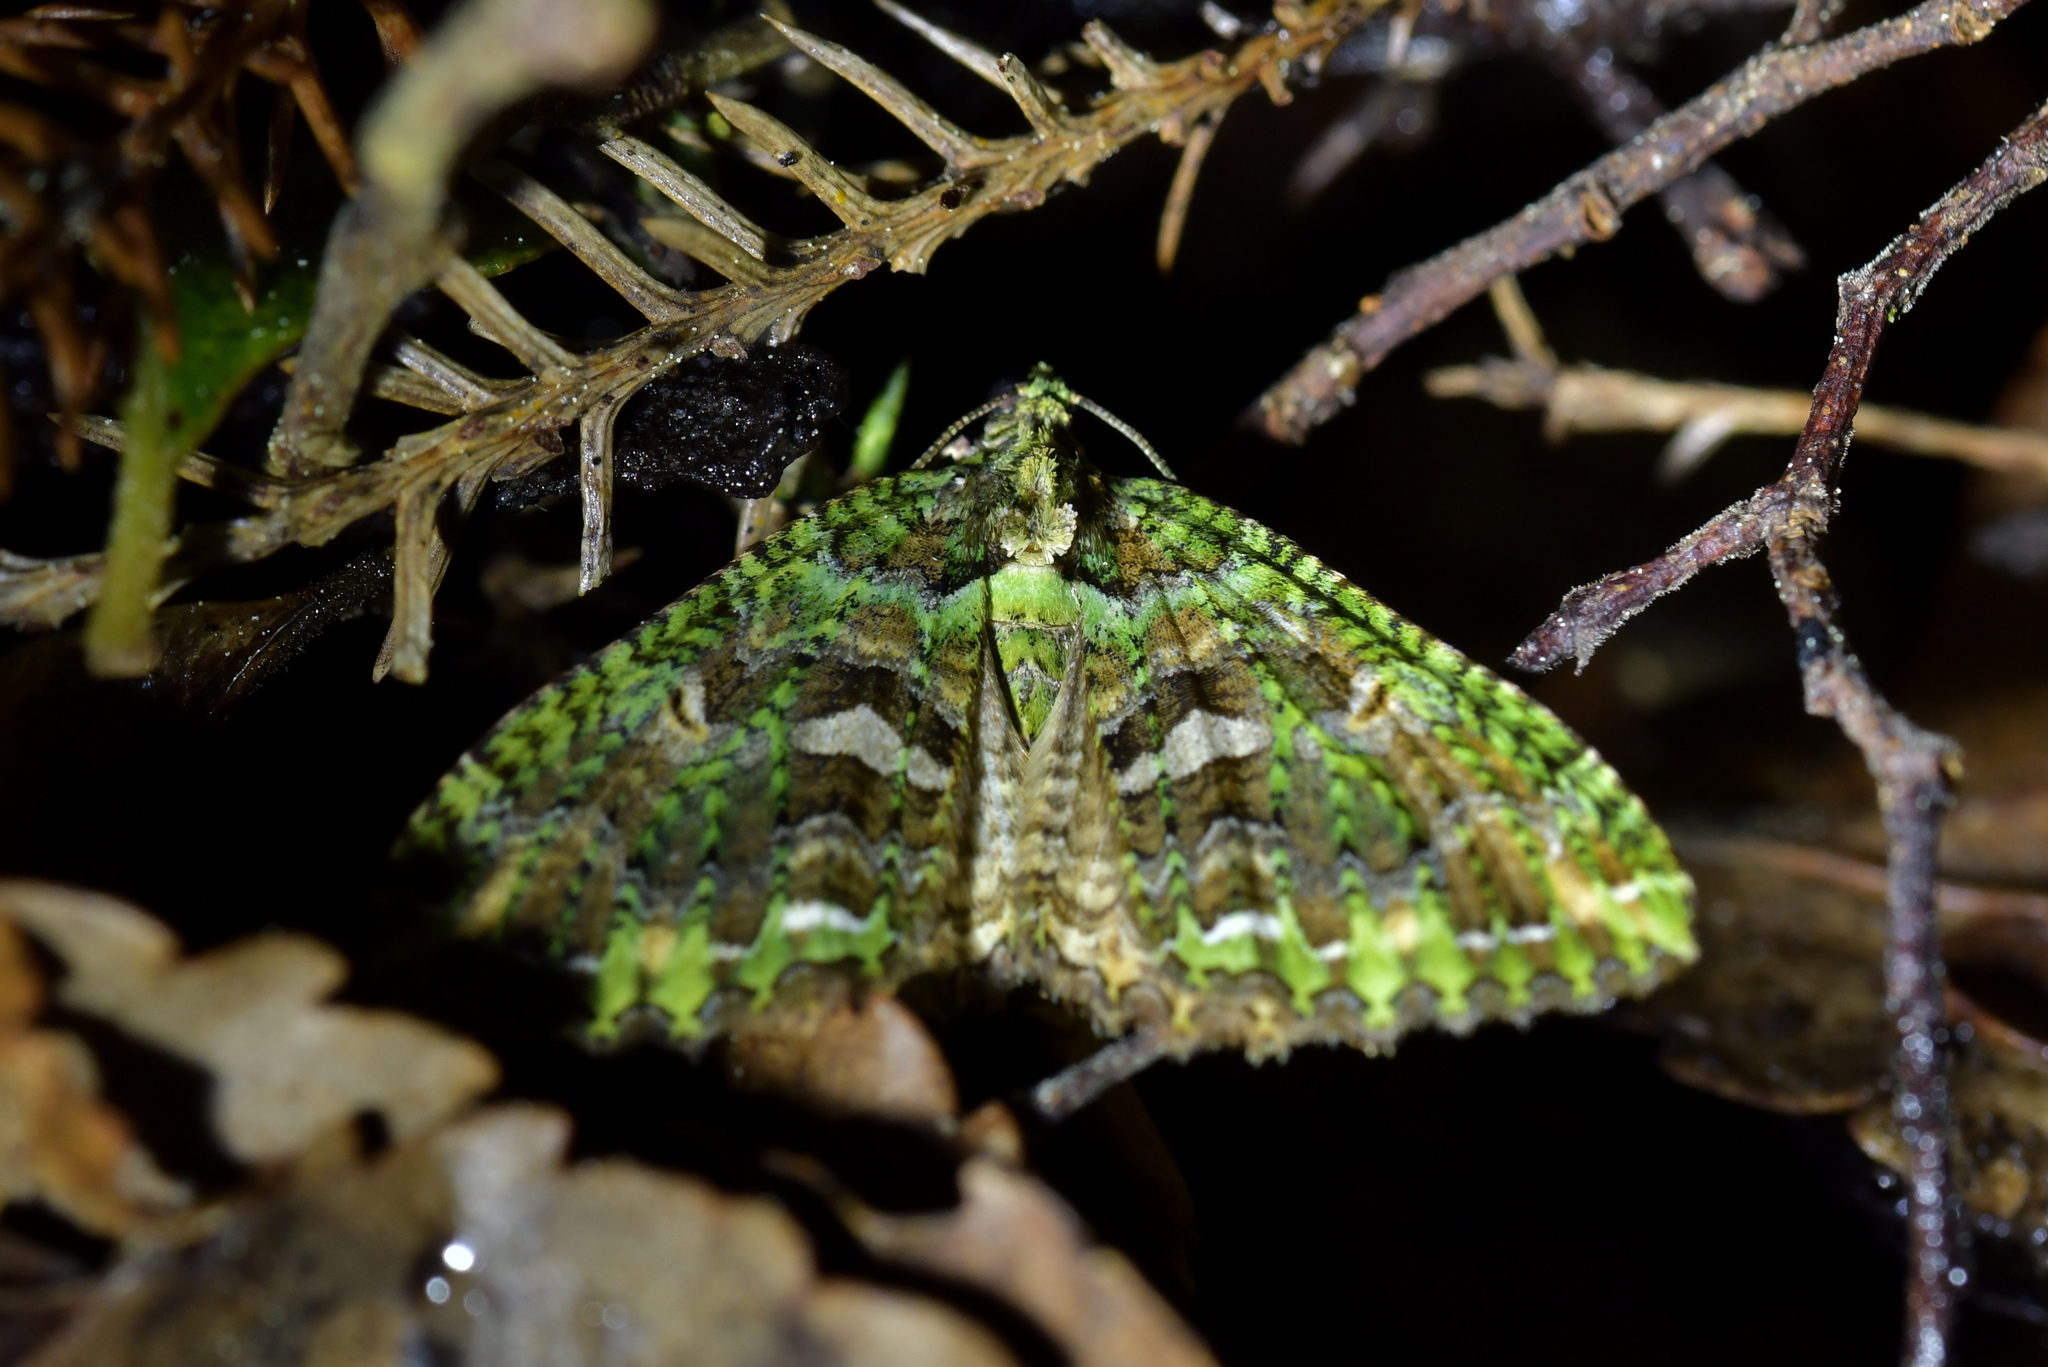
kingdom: Animalia
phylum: Arthropoda
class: Insecta
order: Lepidoptera
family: Geometridae
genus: Austrocidaria
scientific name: Austrocidaria similata
